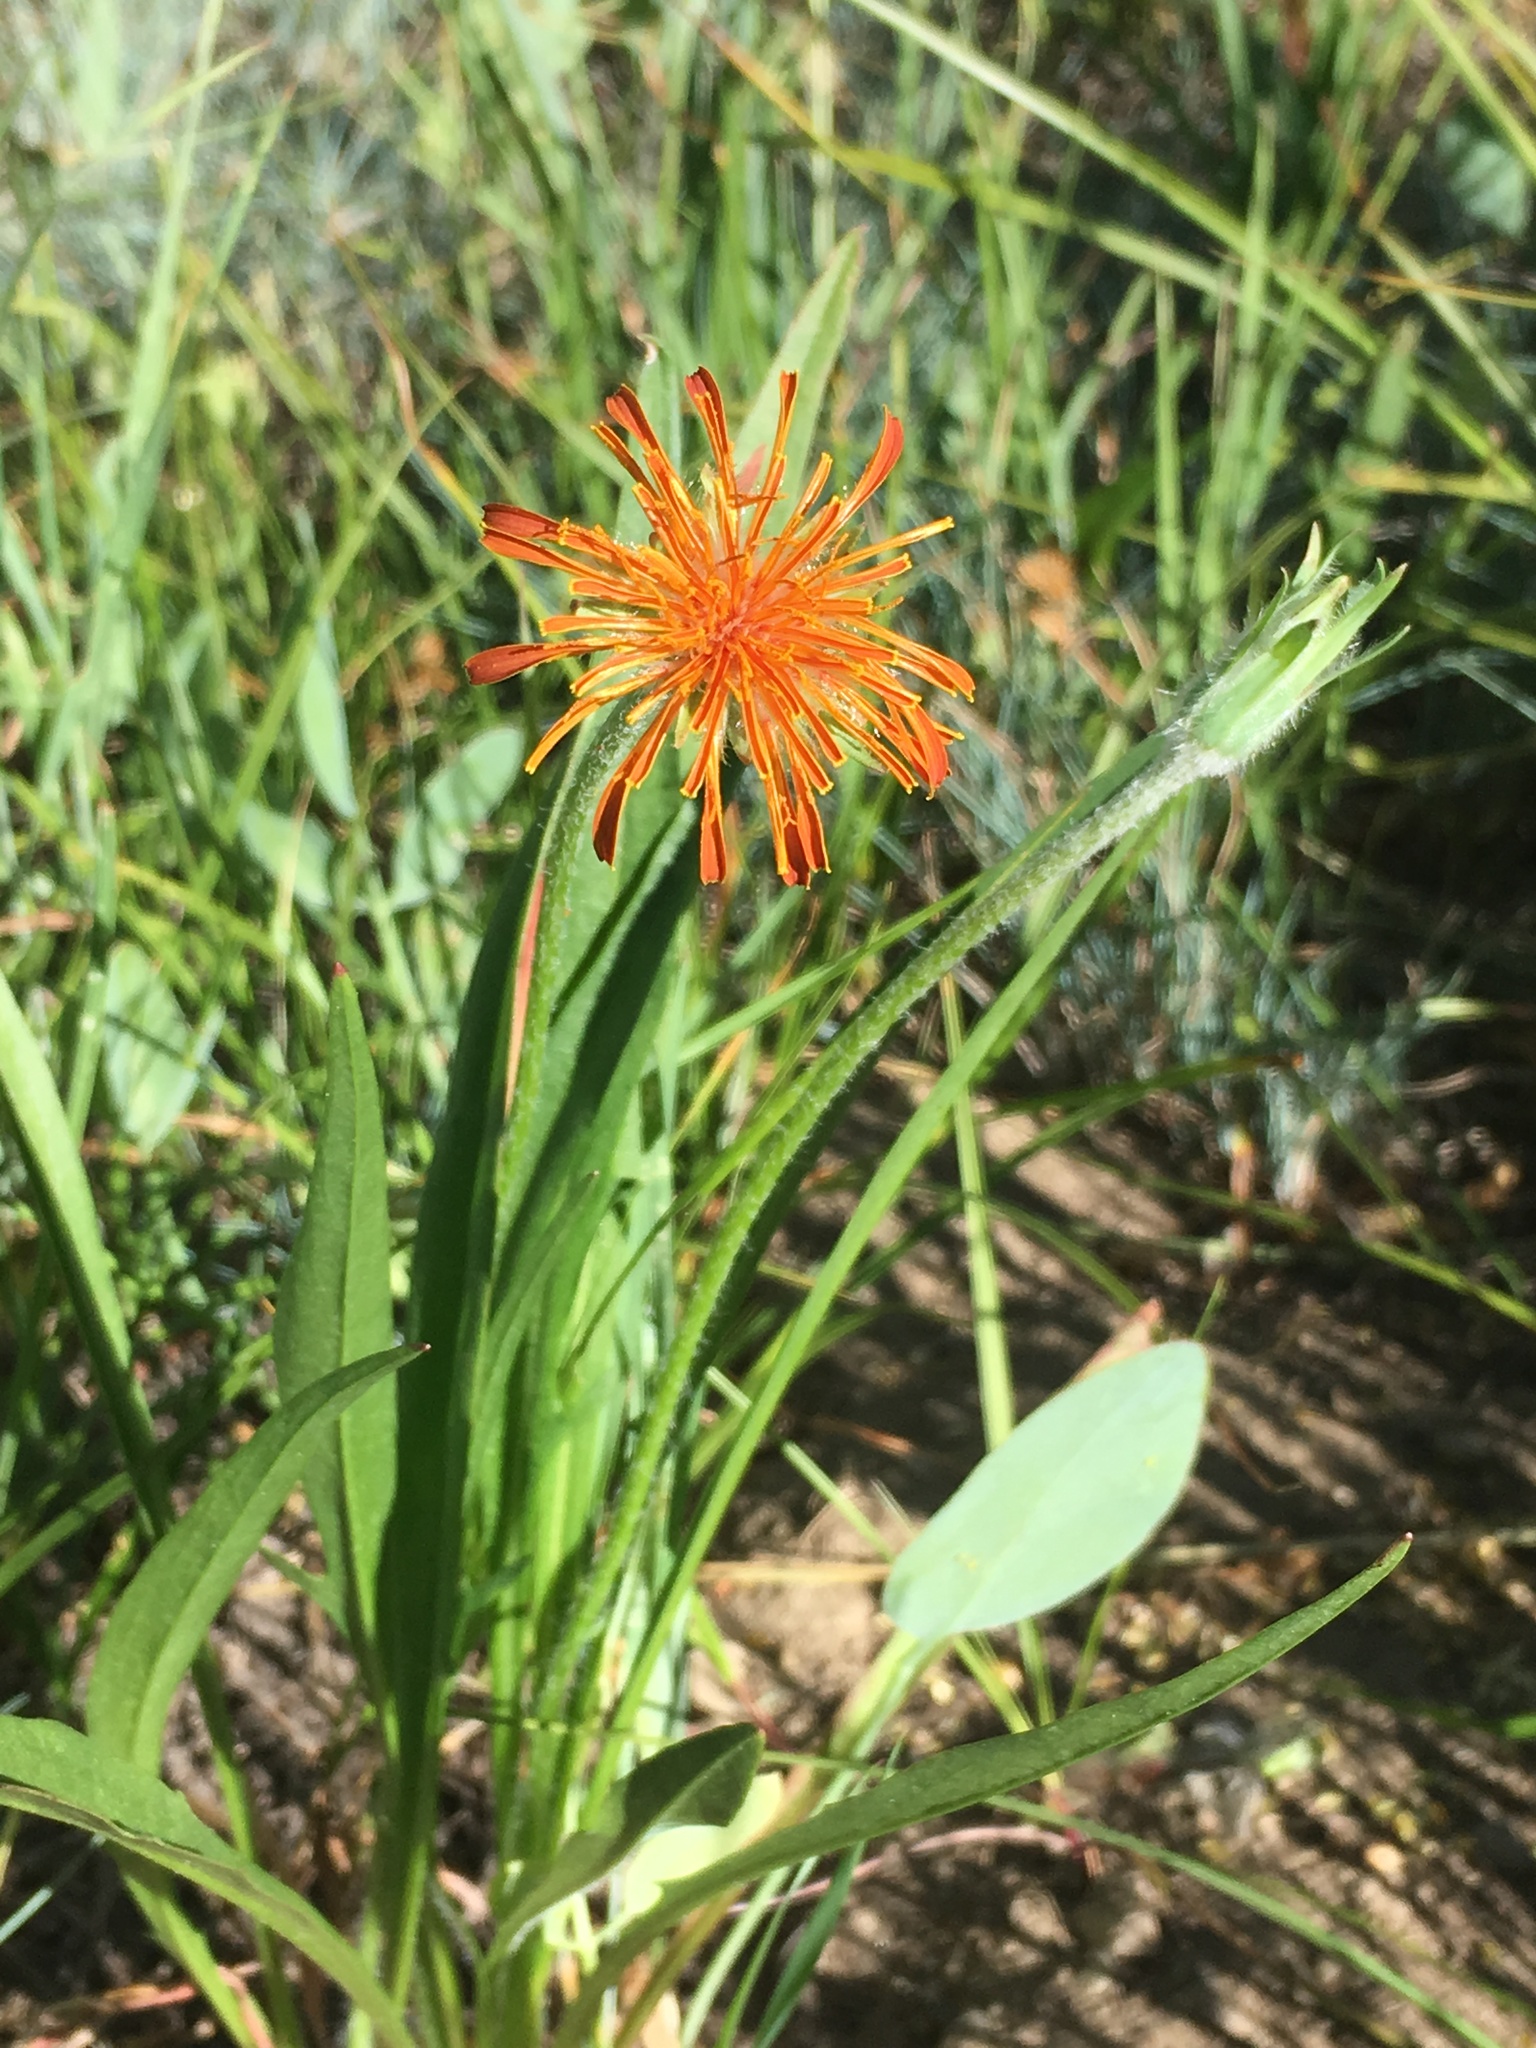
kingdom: Plantae
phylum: Tracheophyta
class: Magnoliopsida
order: Asterales
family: Asteraceae
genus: Agoseris
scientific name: Agoseris aurantiaca
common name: Mountain agoseris
